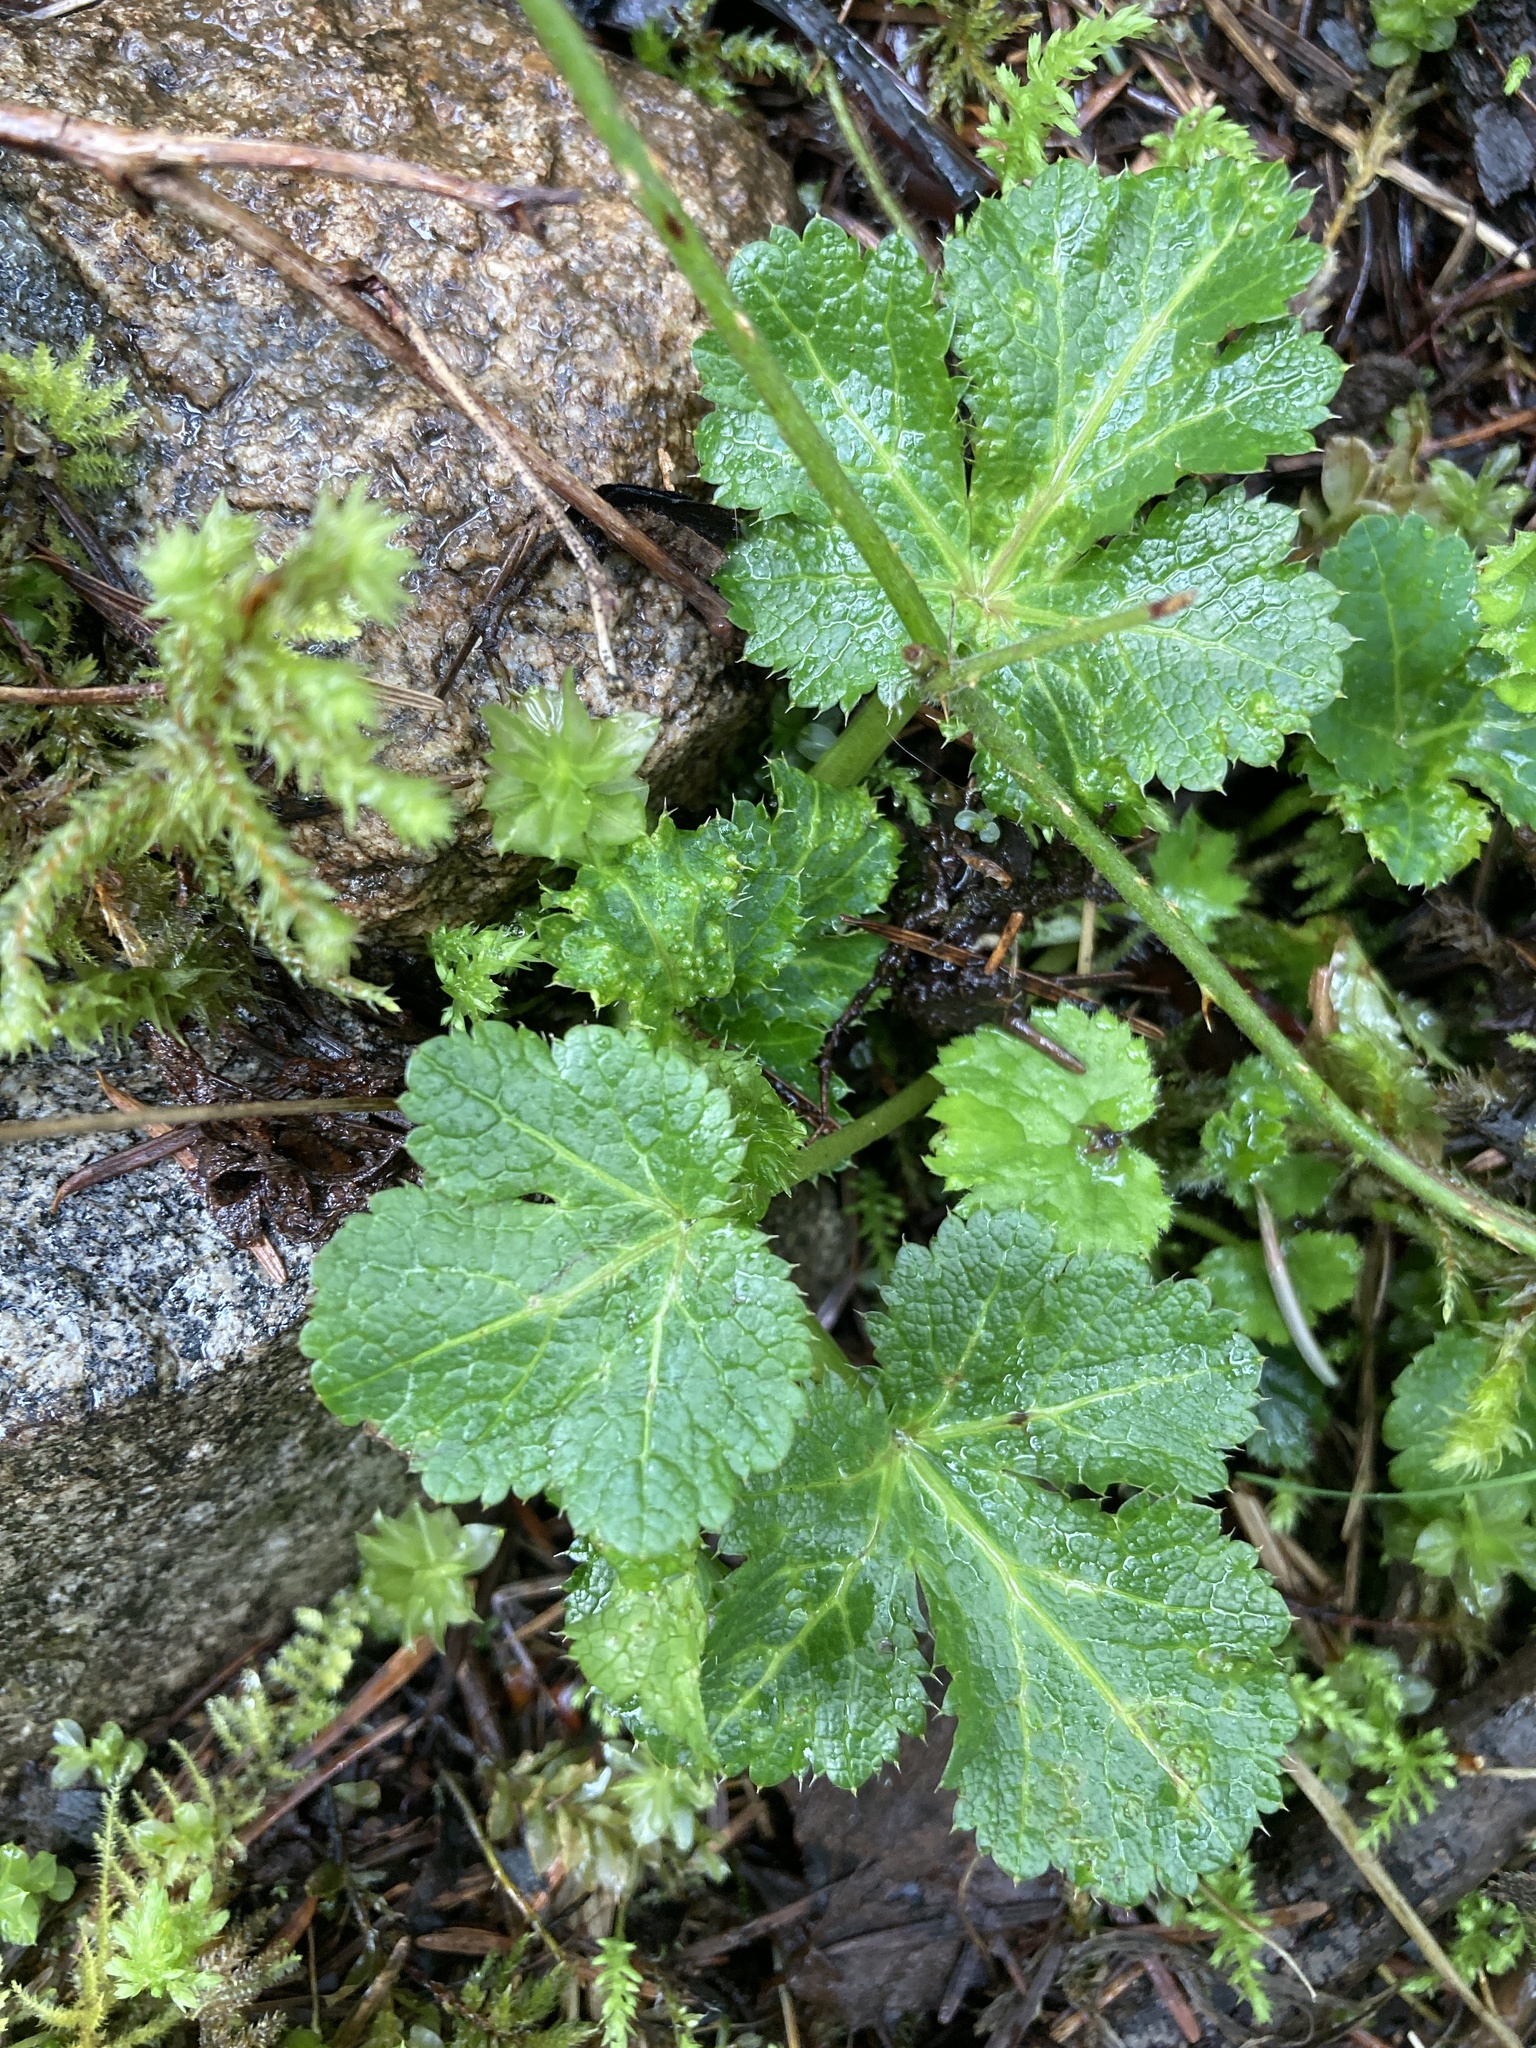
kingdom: Plantae
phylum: Tracheophyta
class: Magnoliopsida
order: Apiales
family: Apiaceae
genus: Sanicula
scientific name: Sanicula crassicaulis
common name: Western snakeroot
